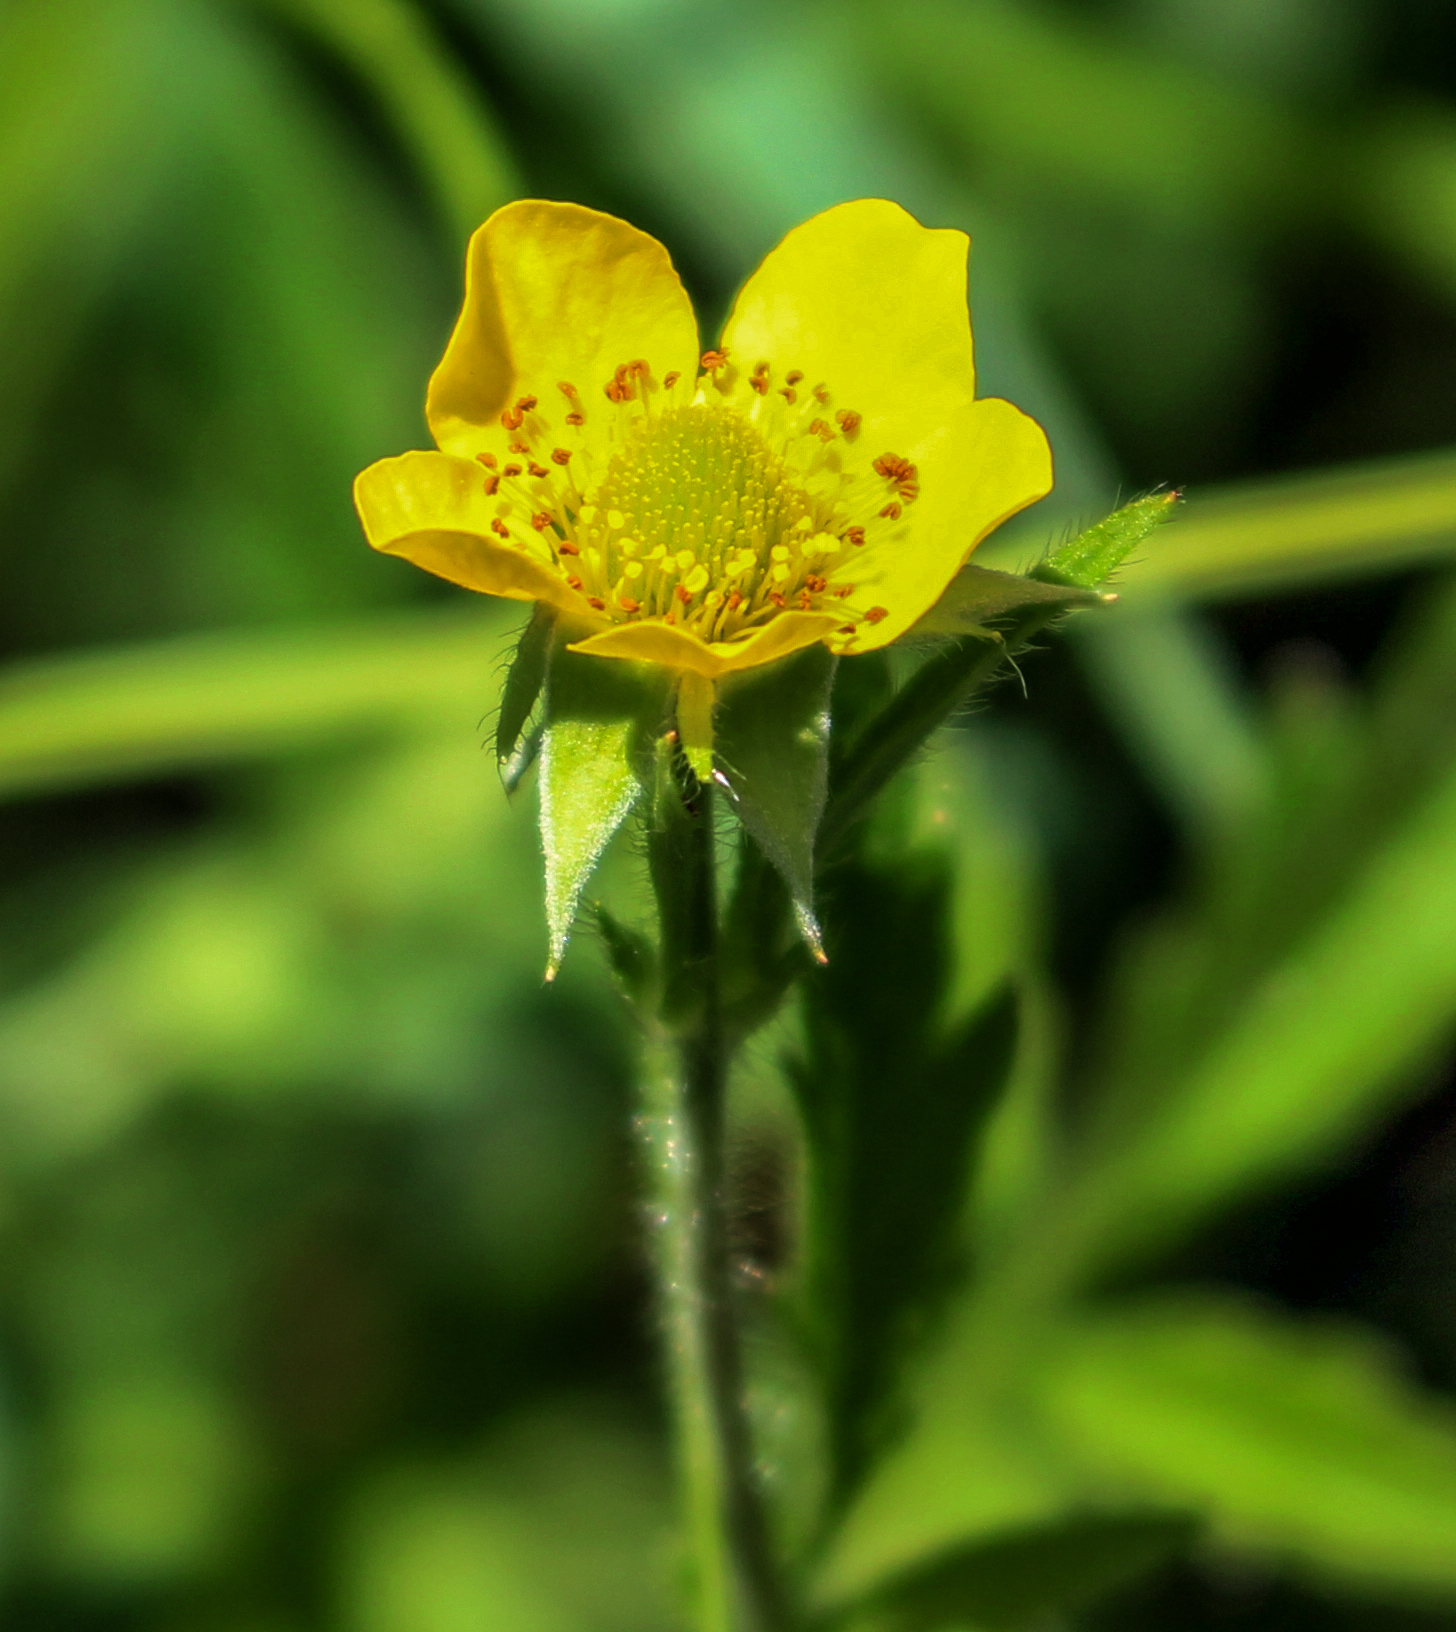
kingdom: Plantae
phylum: Tracheophyta
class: Magnoliopsida
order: Rosales
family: Rosaceae
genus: Geum
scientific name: Geum aleppicum
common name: Yellow avens
